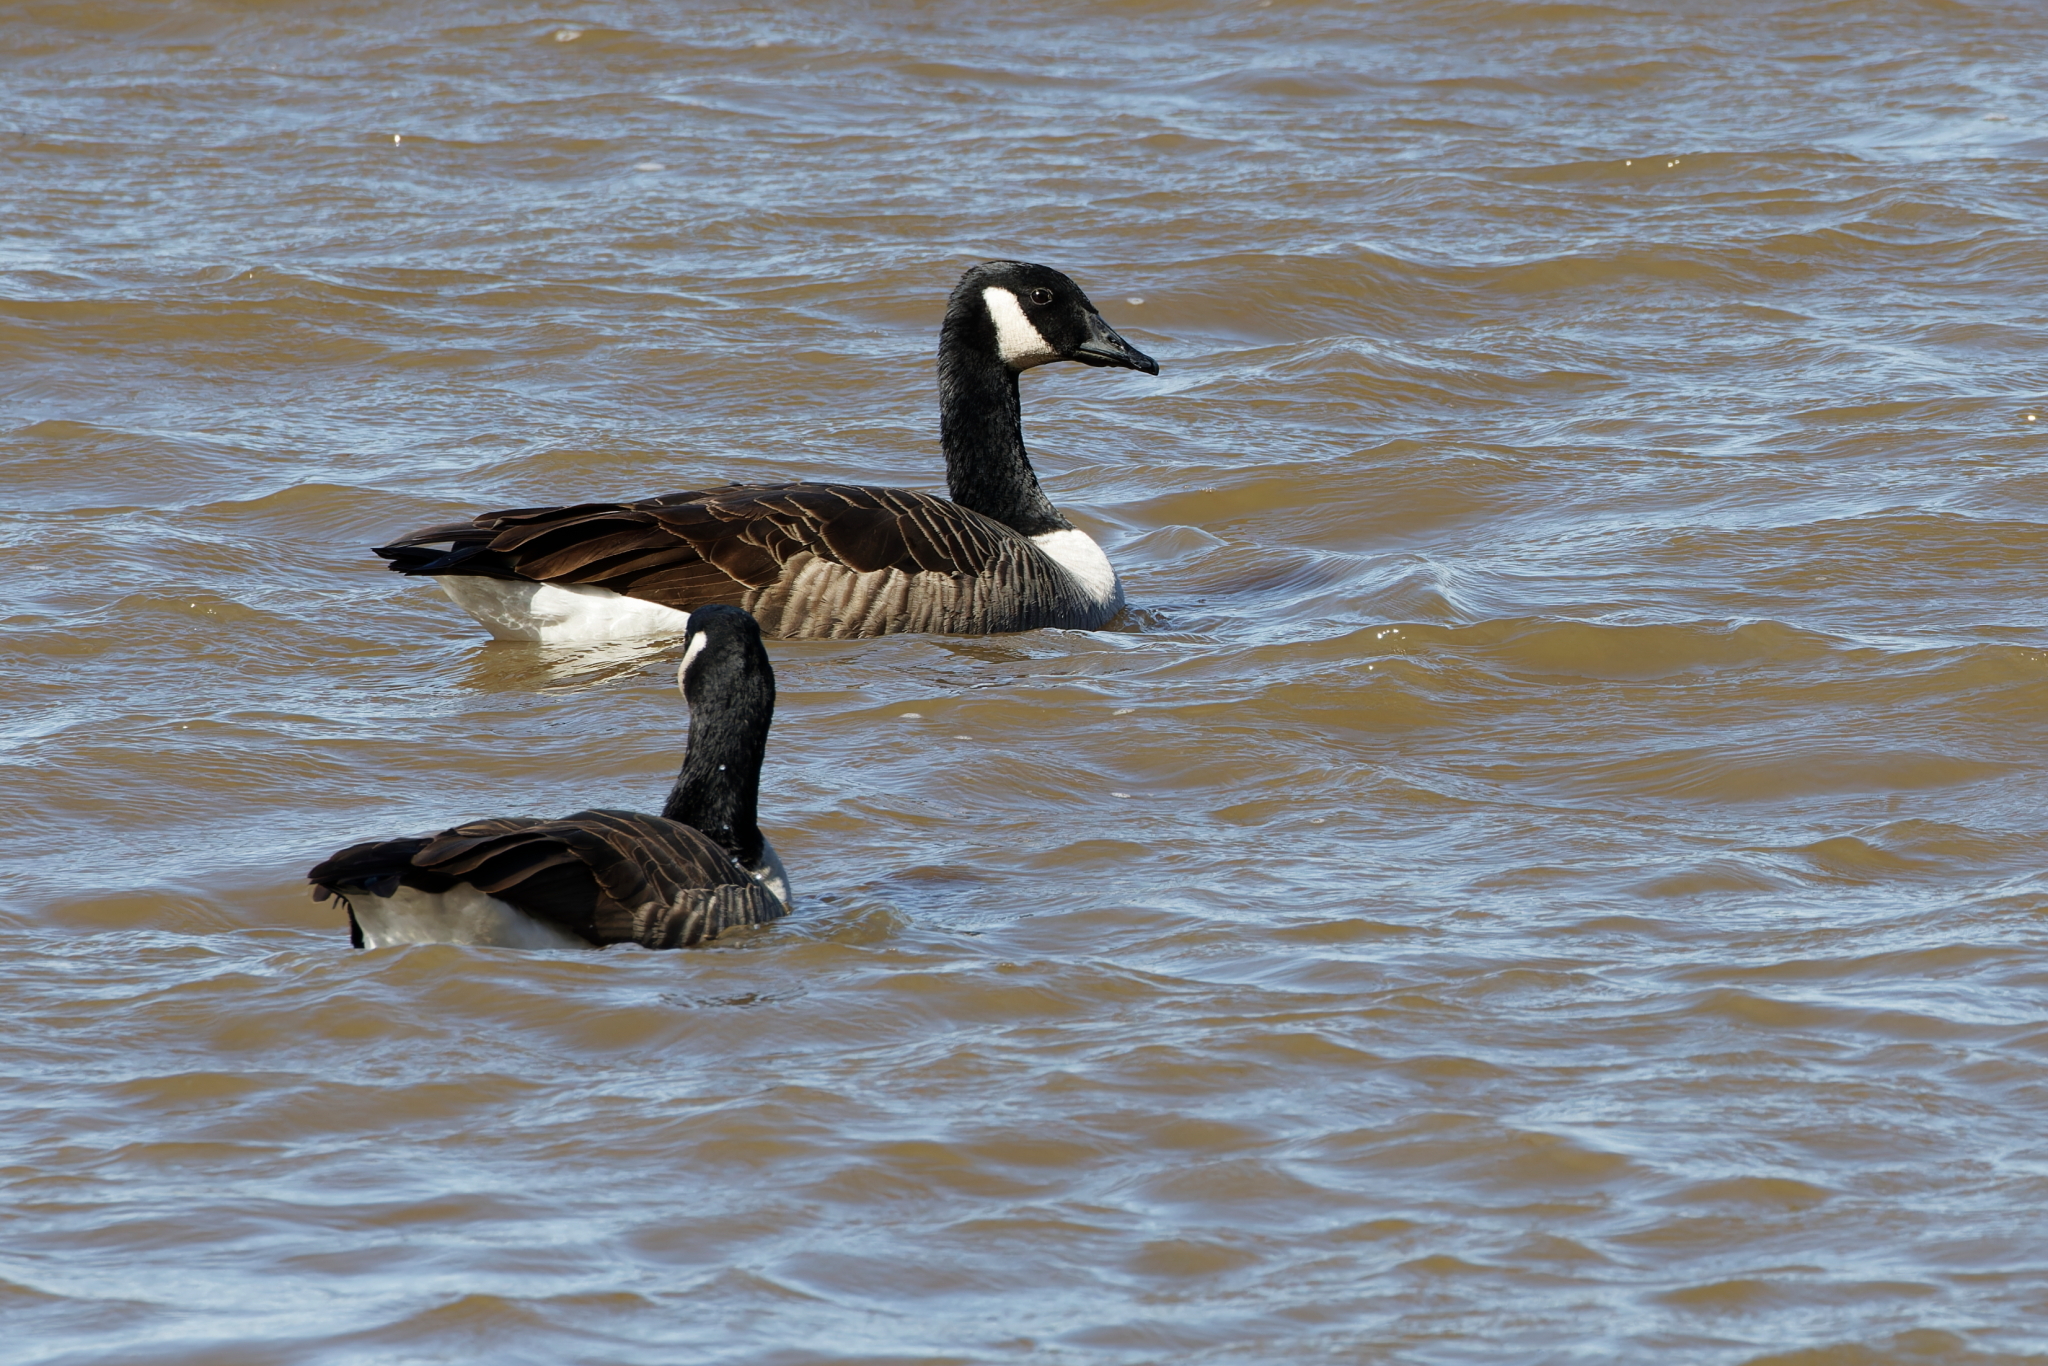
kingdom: Animalia
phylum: Chordata
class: Aves
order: Anseriformes
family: Anatidae
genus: Branta
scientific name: Branta canadensis
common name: Canada goose
